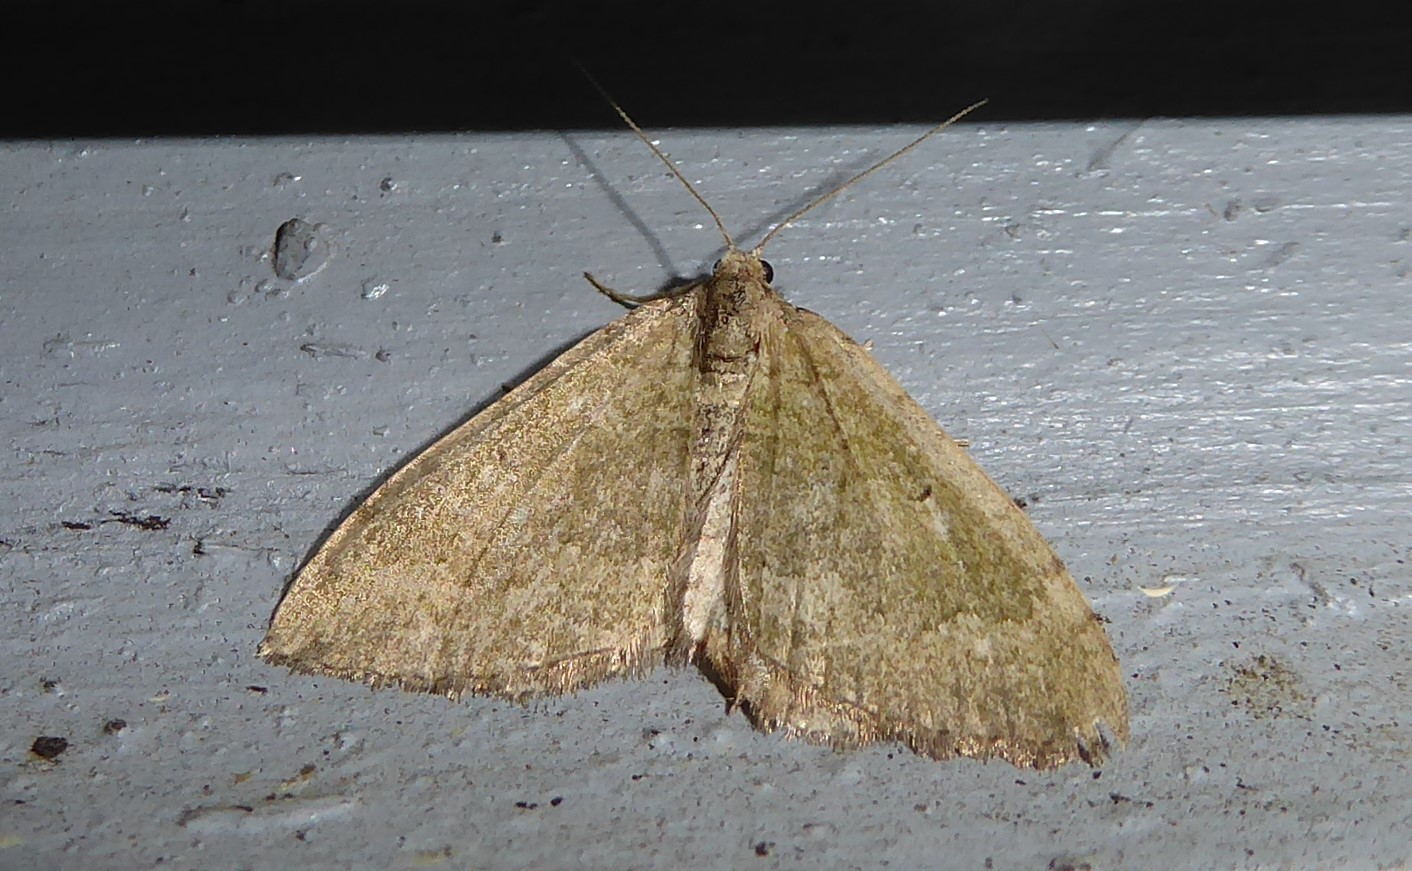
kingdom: Animalia
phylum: Arthropoda
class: Insecta
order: Lepidoptera
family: Geometridae
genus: Epyaxa
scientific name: Epyaxa rosearia
